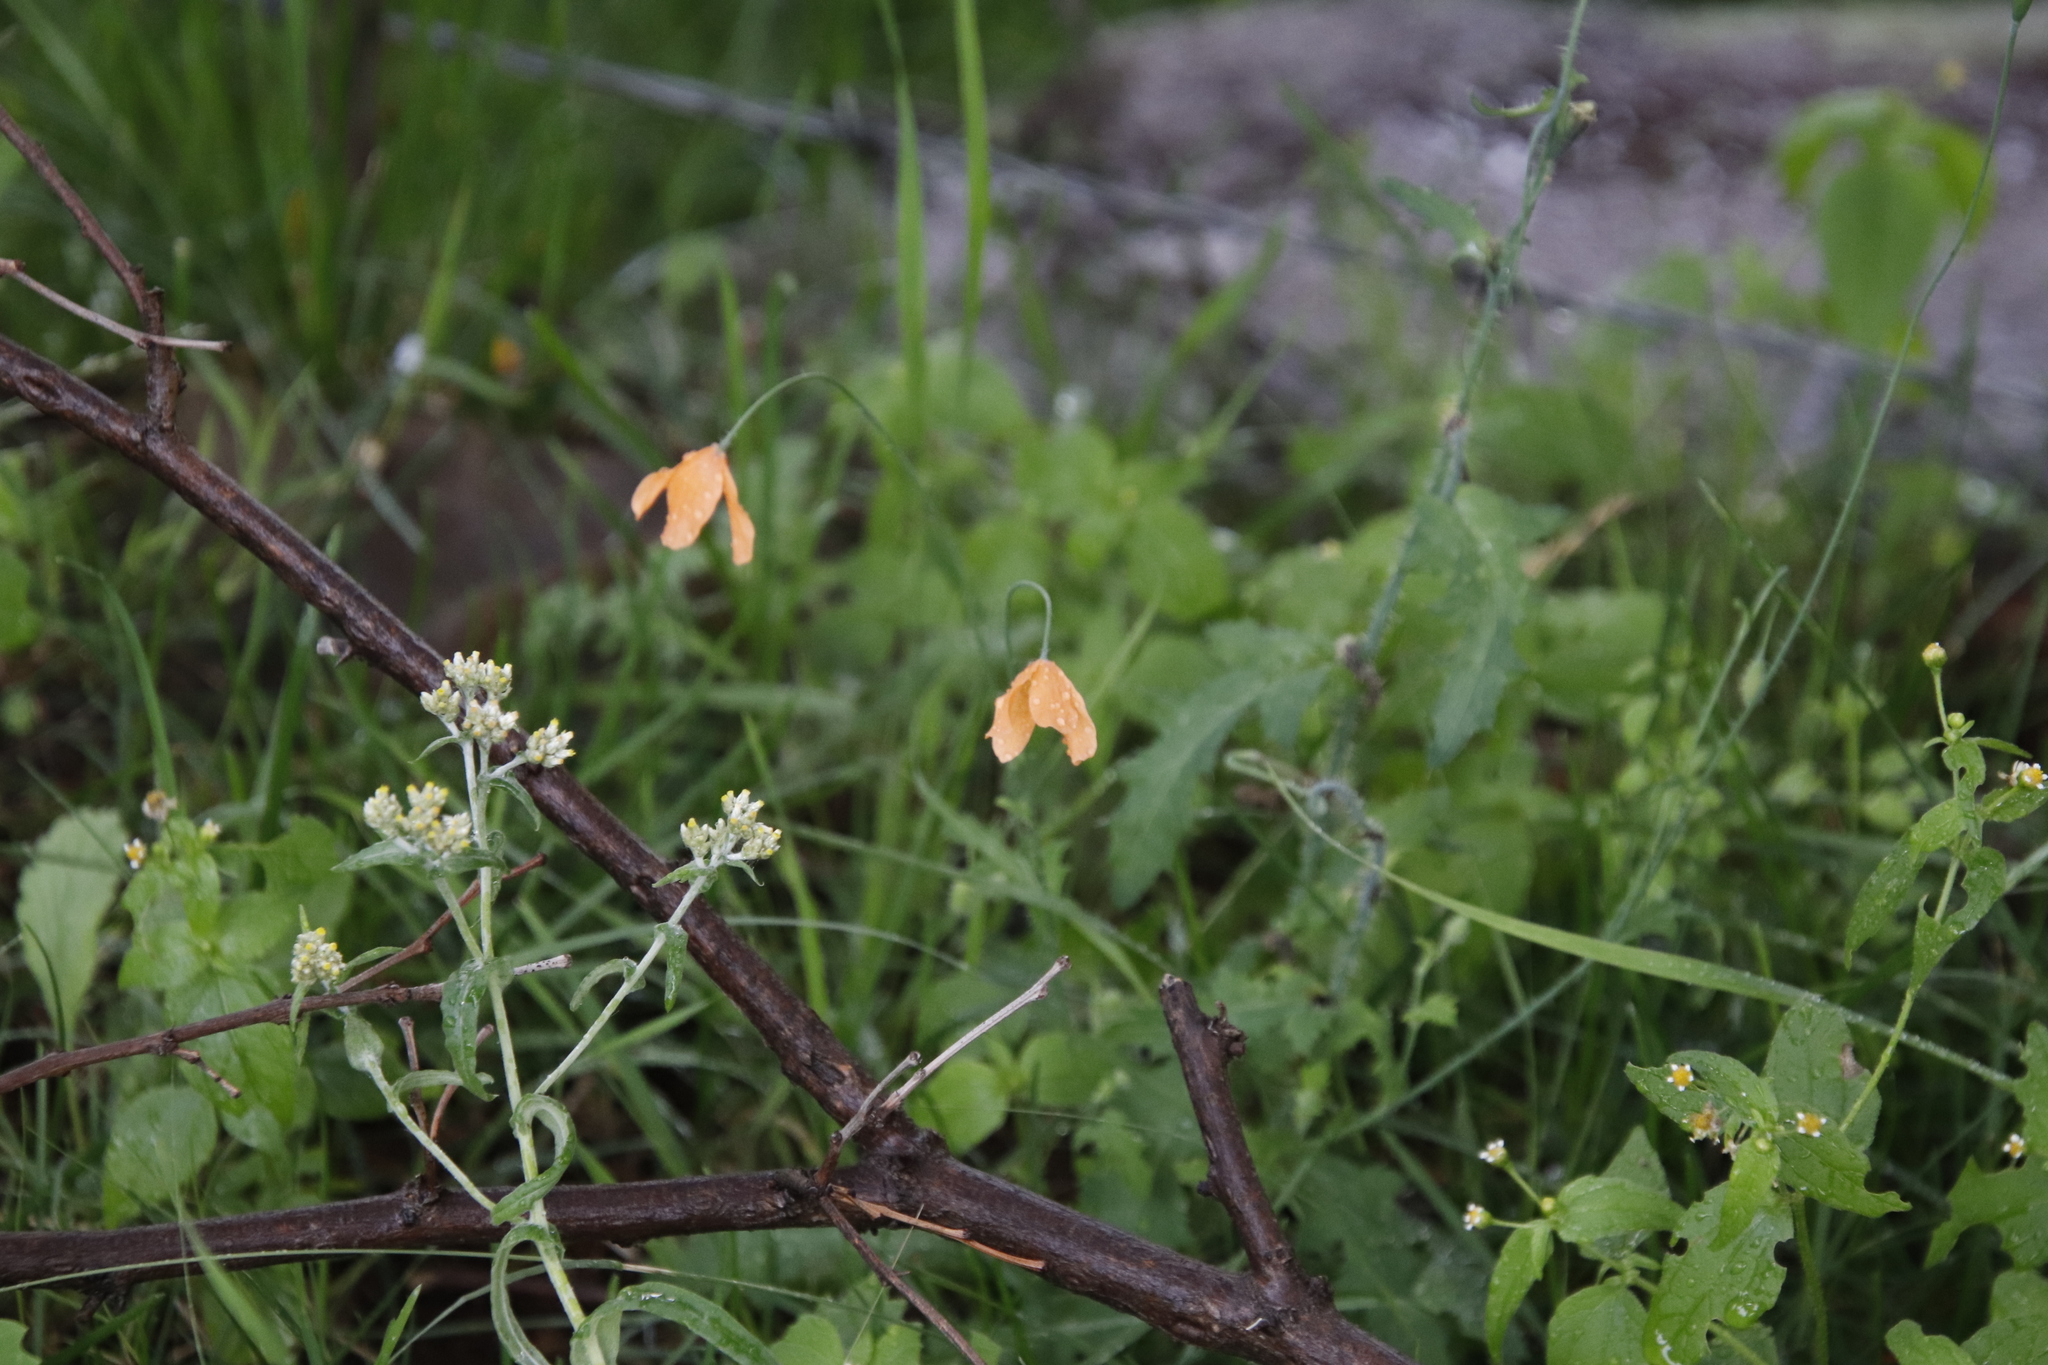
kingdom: Plantae
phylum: Tracheophyta
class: Magnoliopsida
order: Ranunculales
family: Papaveraceae
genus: Papaver
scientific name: Papaver aculeatum
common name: Bristle poppy
